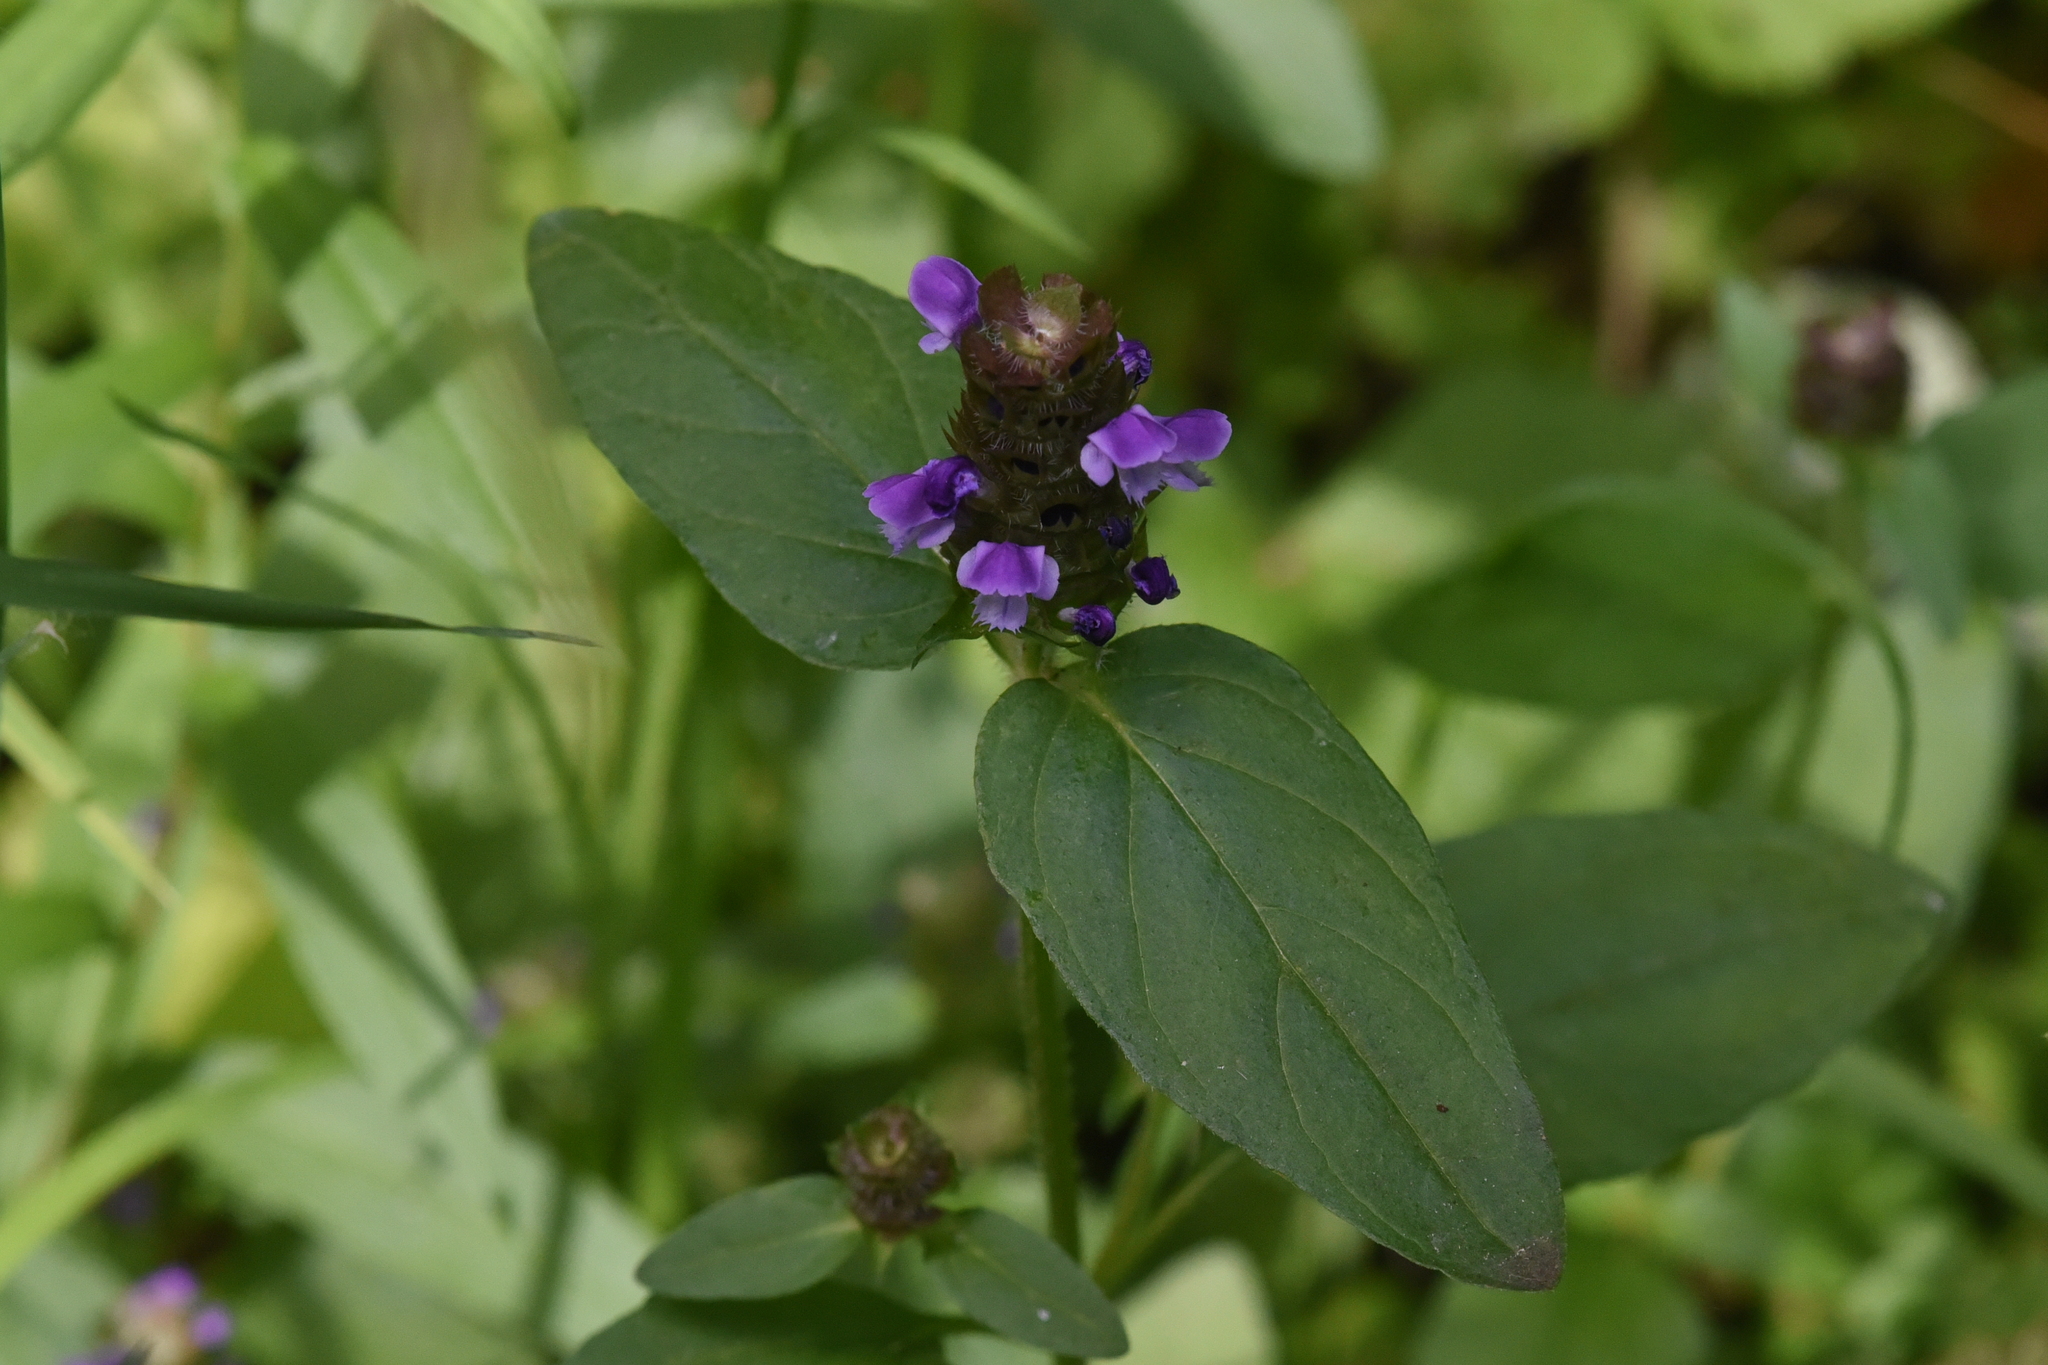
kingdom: Plantae
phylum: Tracheophyta
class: Magnoliopsida
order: Lamiales
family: Lamiaceae
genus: Prunella
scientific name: Prunella vulgaris
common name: Heal-all
